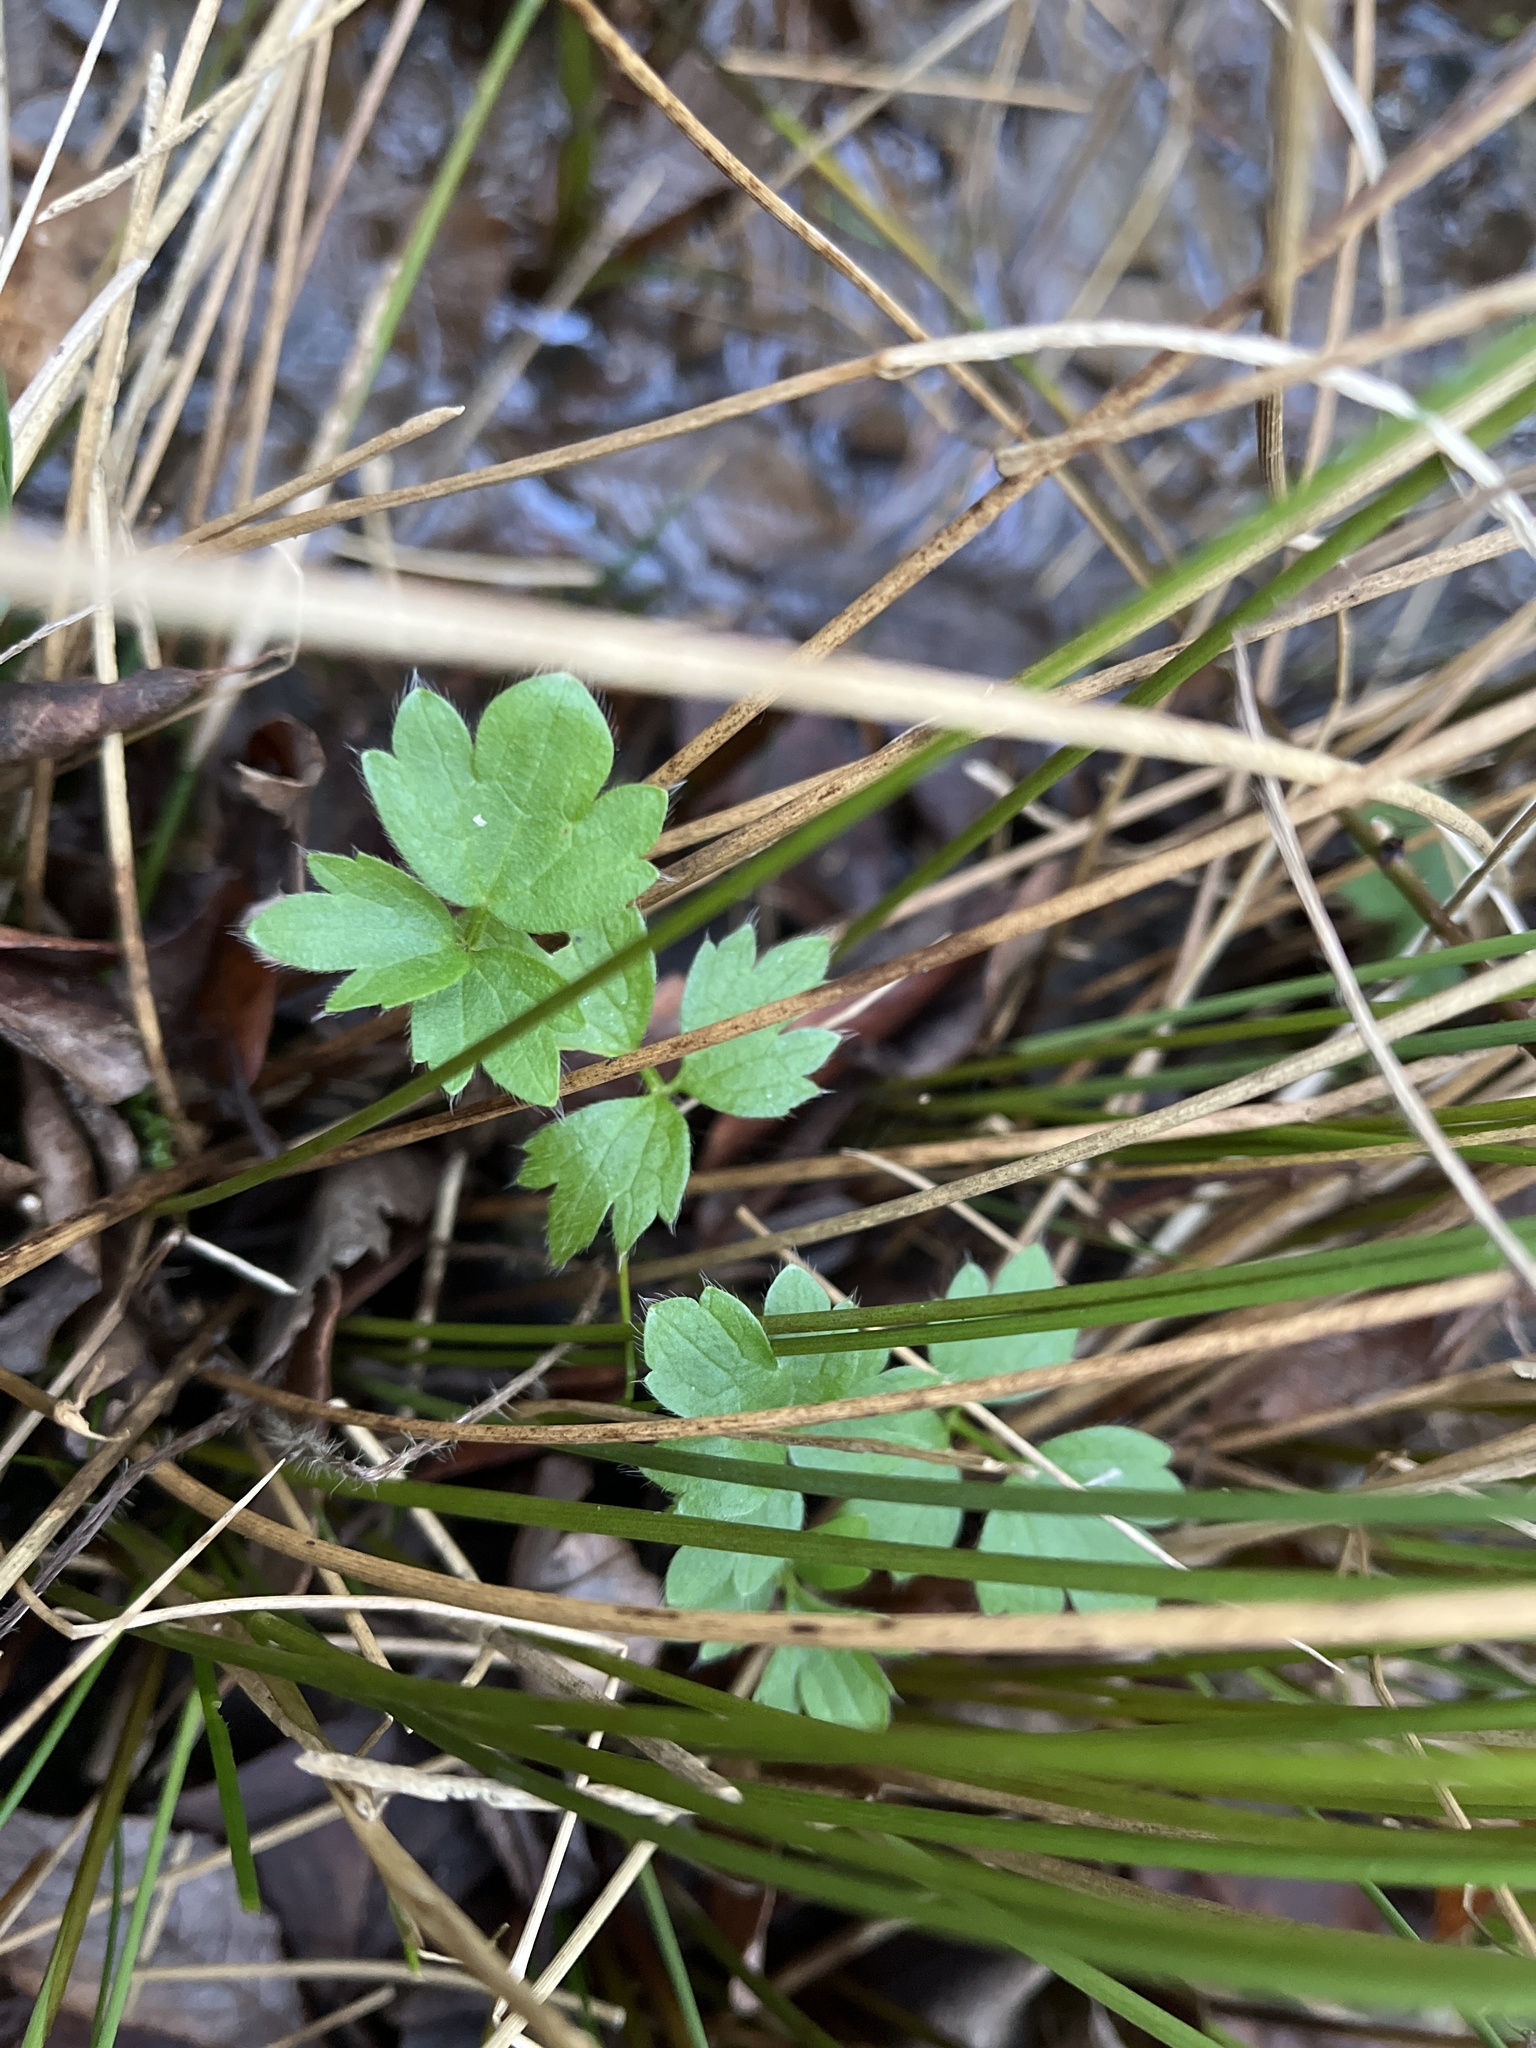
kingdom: Plantae
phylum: Tracheophyta
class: Magnoliopsida
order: Ranunculales
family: Ranunculaceae
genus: Ranunculus
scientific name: Ranunculus repens
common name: Creeping buttercup
